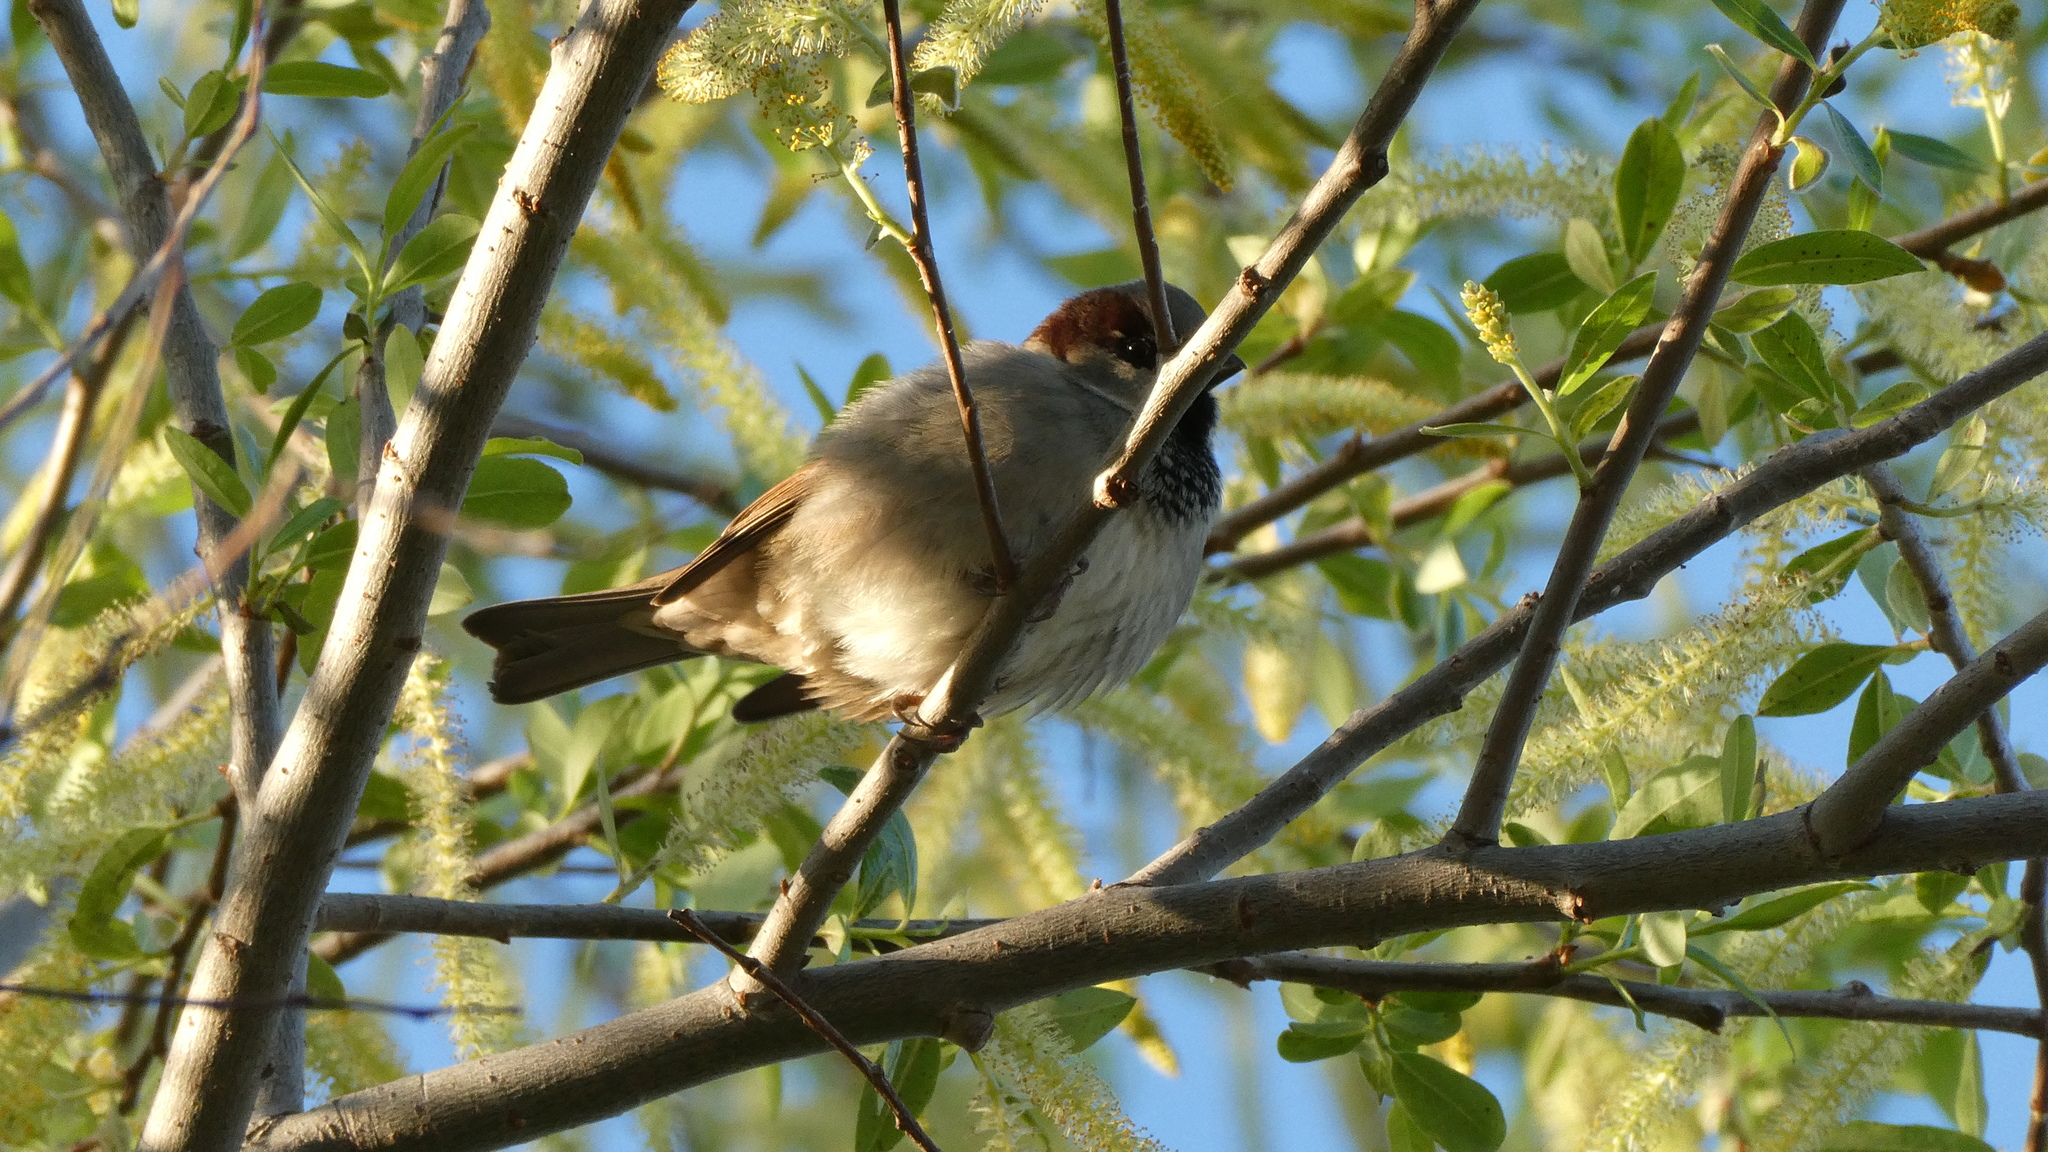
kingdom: Animalia
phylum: Chordata
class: Aves
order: Passeriformes
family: Passeridae
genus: Passer
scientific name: Passer domesticus
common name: House sparrow
